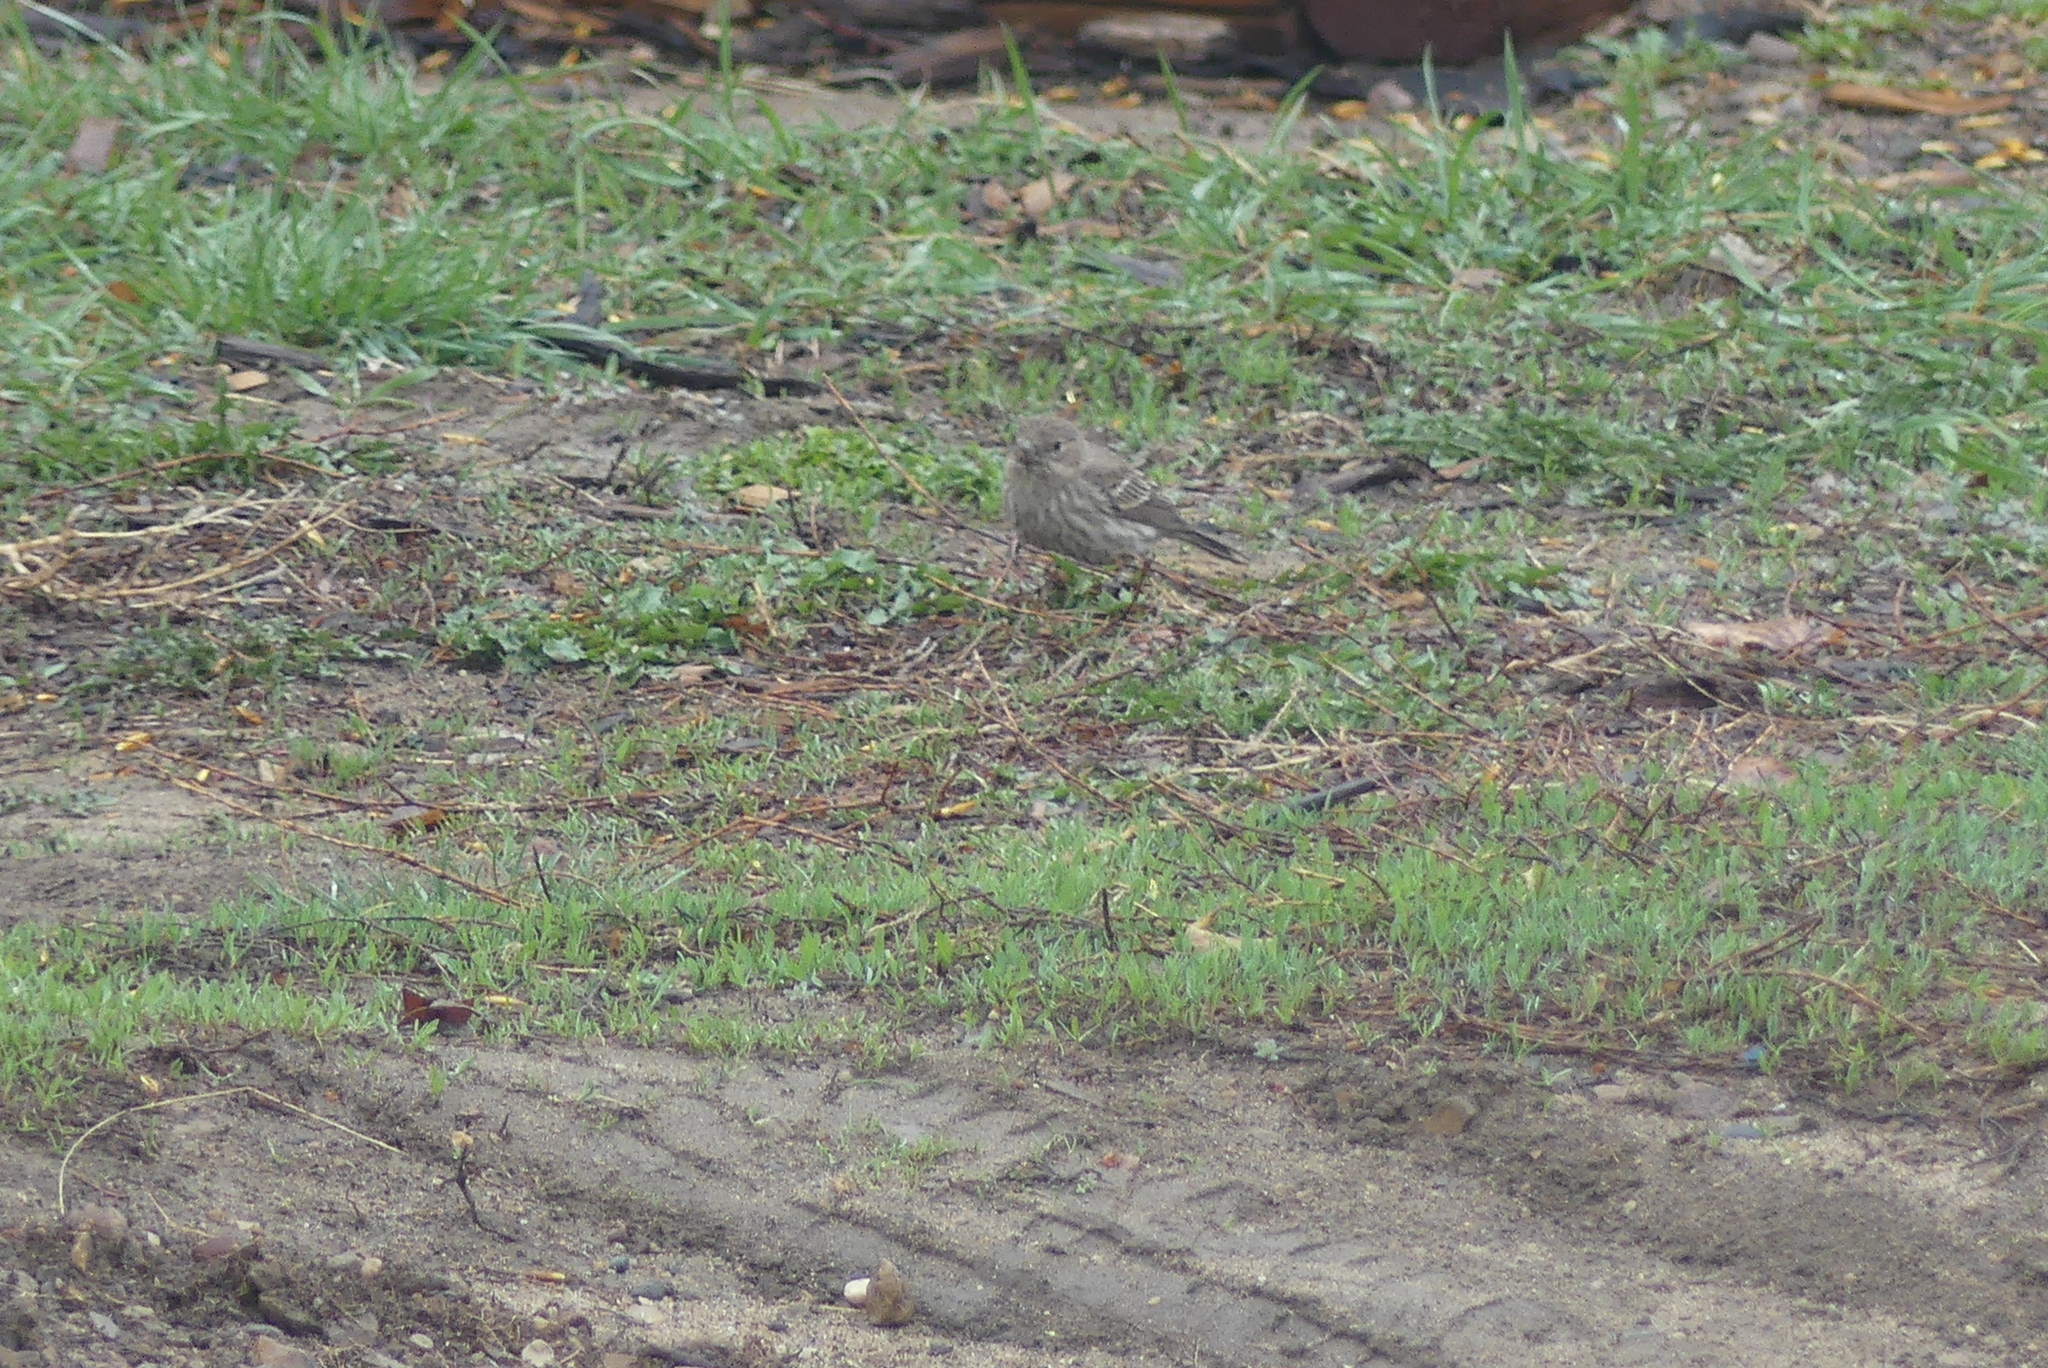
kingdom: Animalia
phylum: Chordata
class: Aves
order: Passeriformes
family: Fringillidae
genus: Haemorhous
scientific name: Haemorhous mexicanus
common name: House finch
